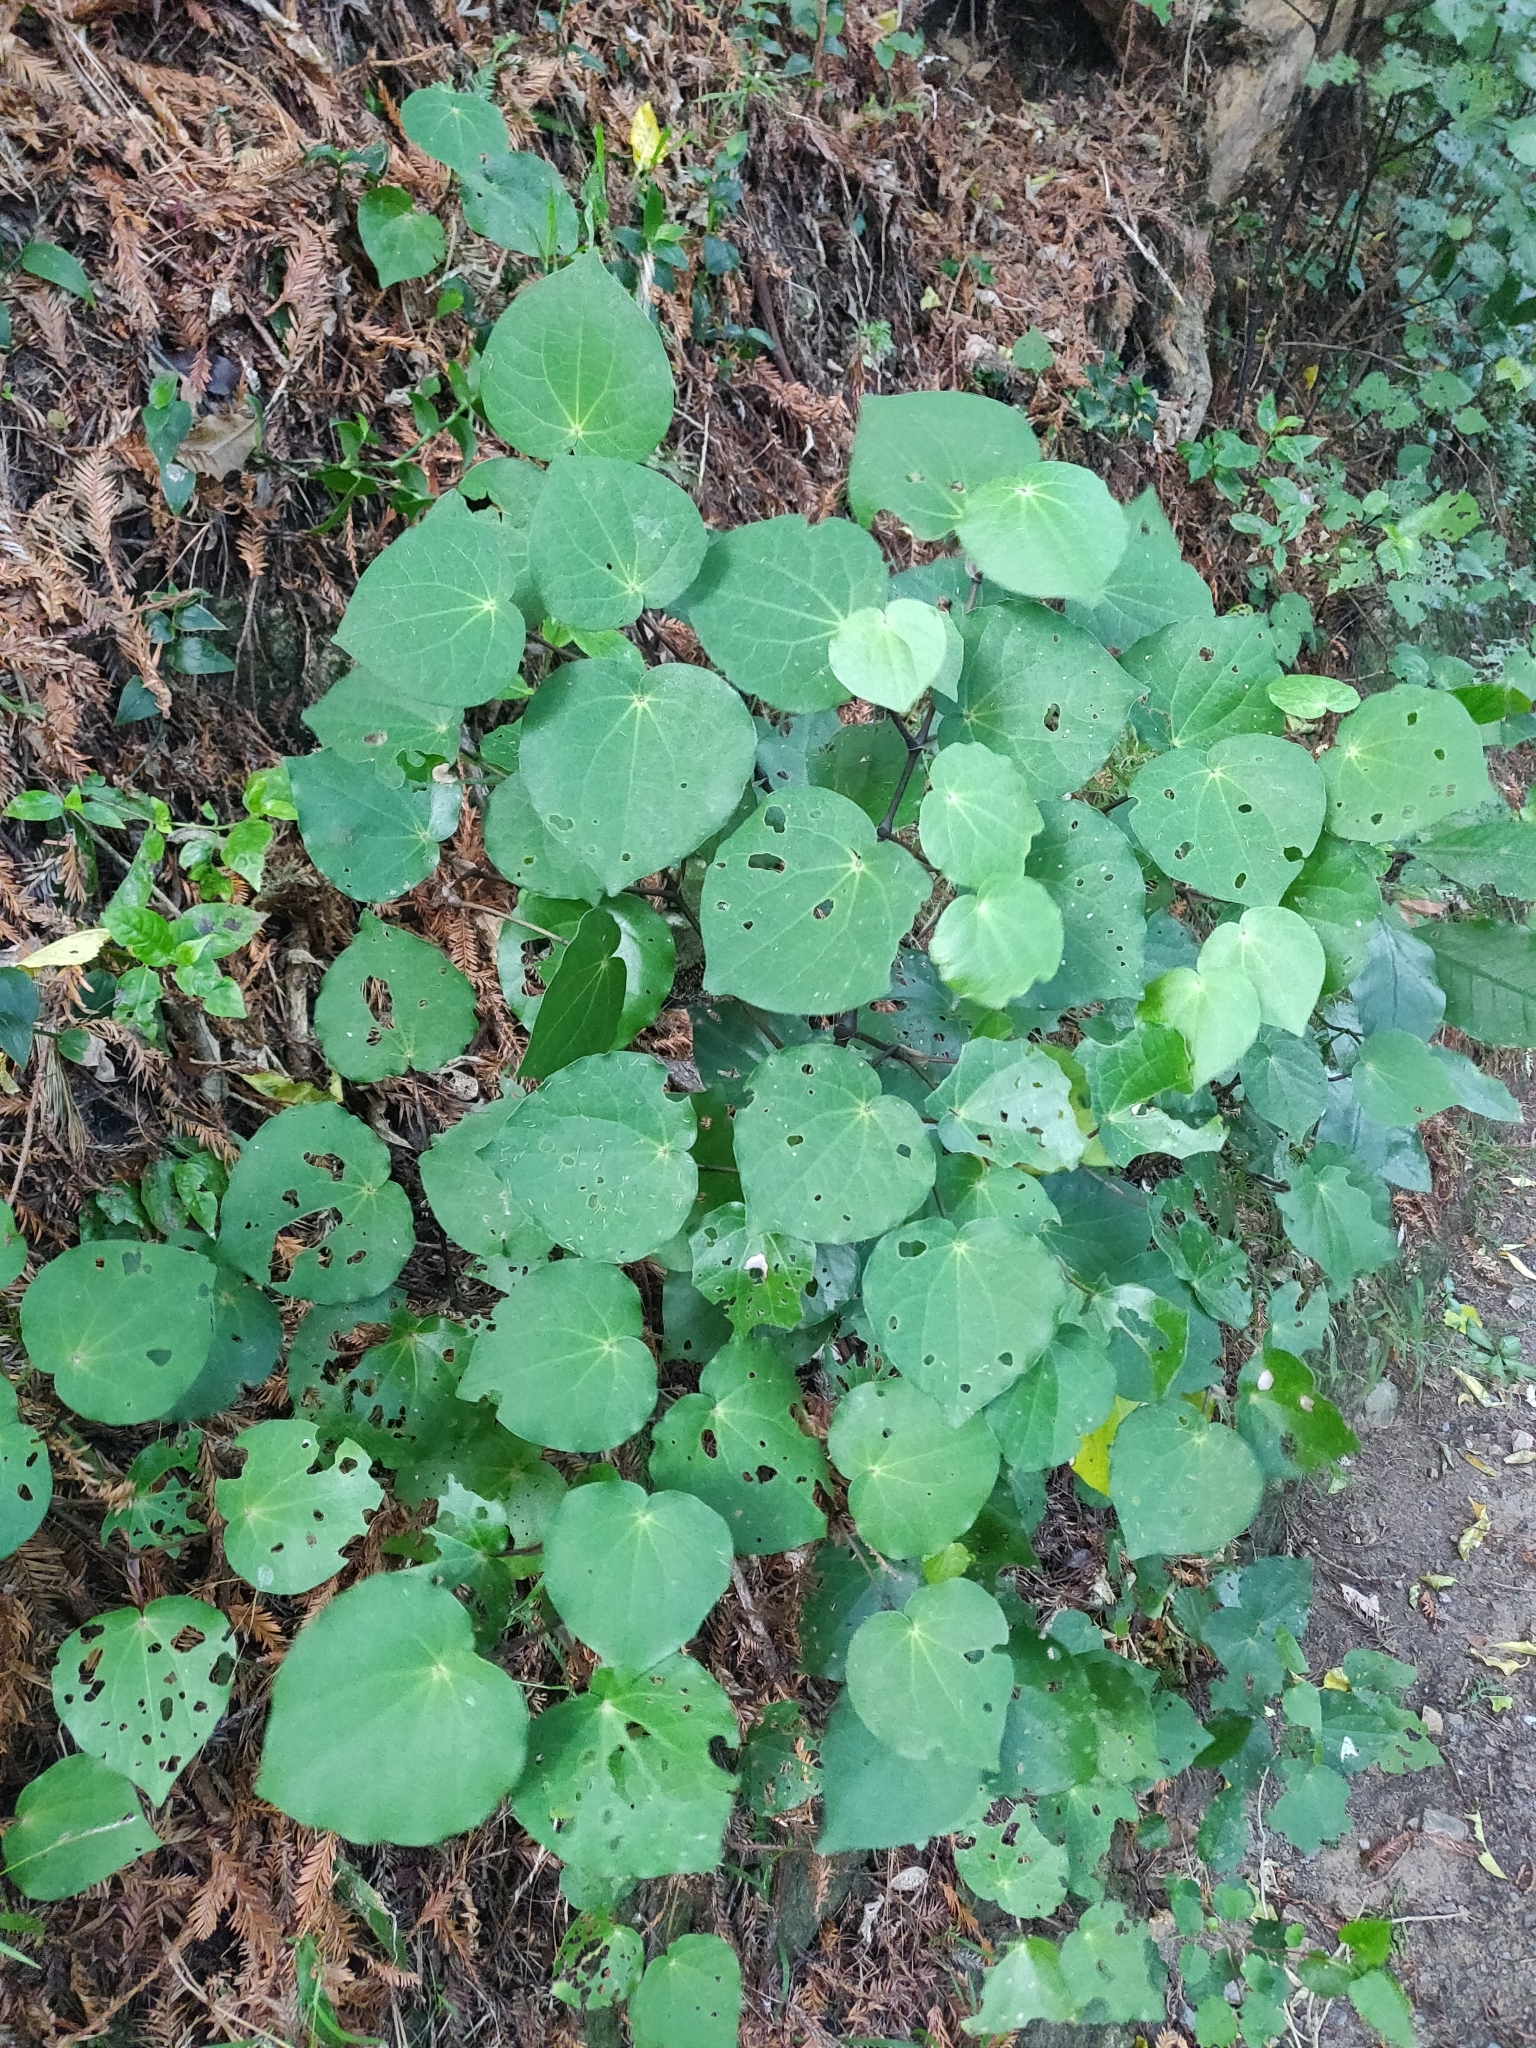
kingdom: Plantae
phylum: Tracheophyta
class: Magnoliopsida
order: Piperales
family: Piperaceae
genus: Macropiper
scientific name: Macropiper excelsum
